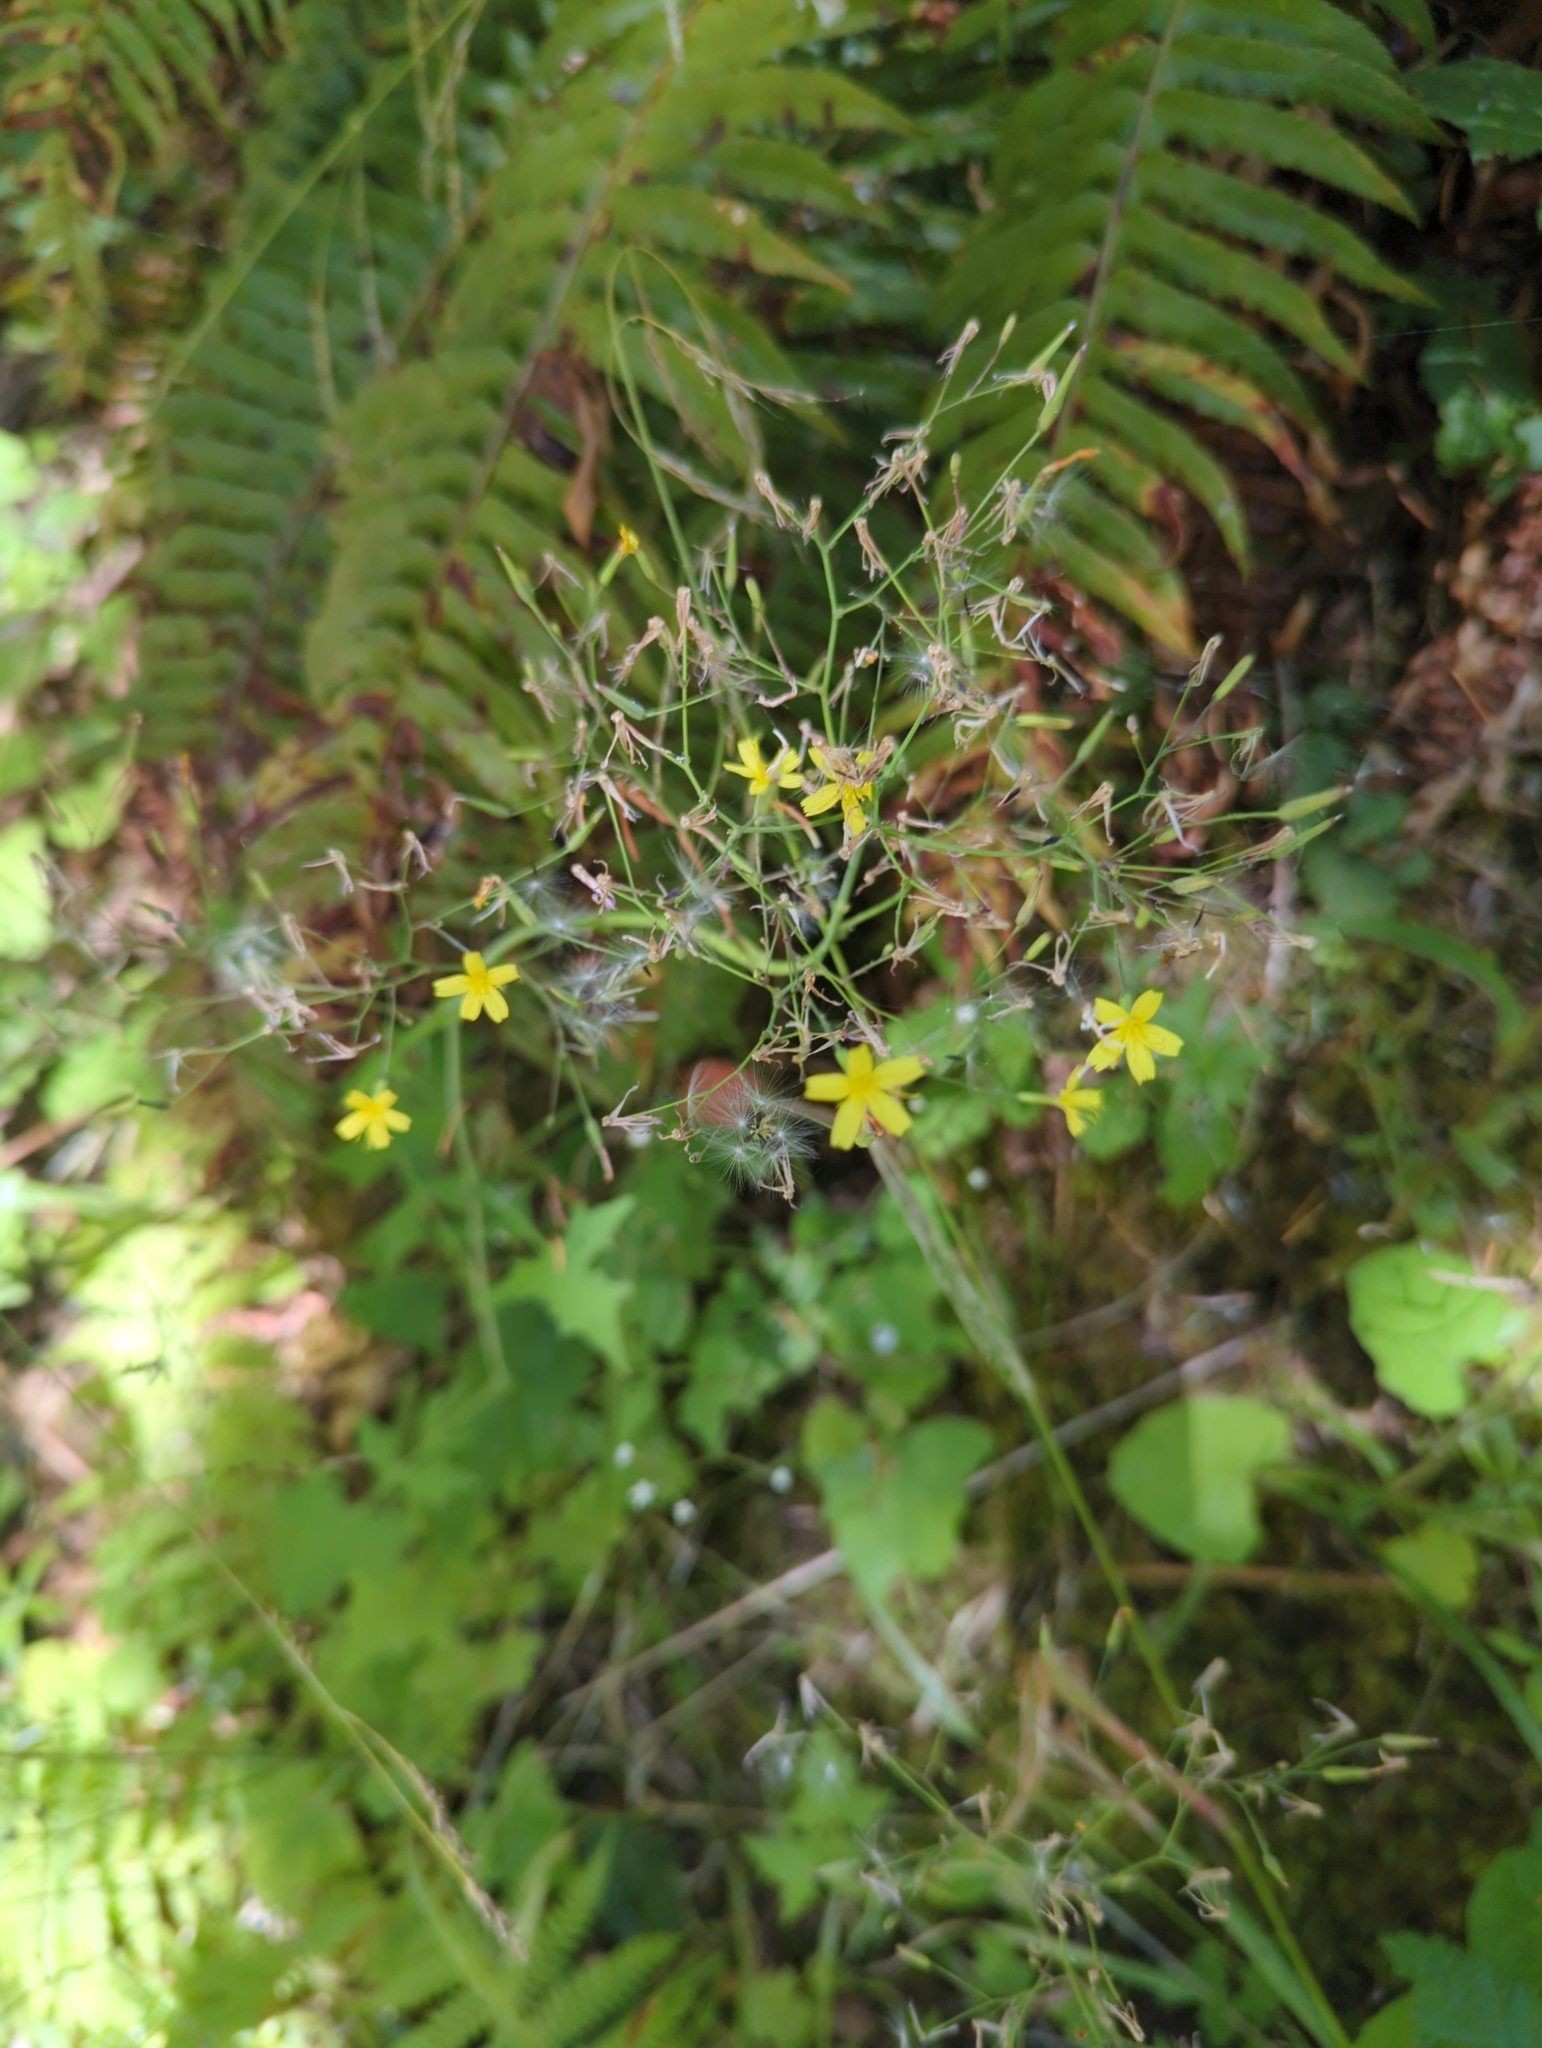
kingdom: Plantae
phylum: Tracheophyta
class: Magnoliopsida
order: Asterales
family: Asteraceae
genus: Mycelis
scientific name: Mycelis muralis
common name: Wall lettuce
